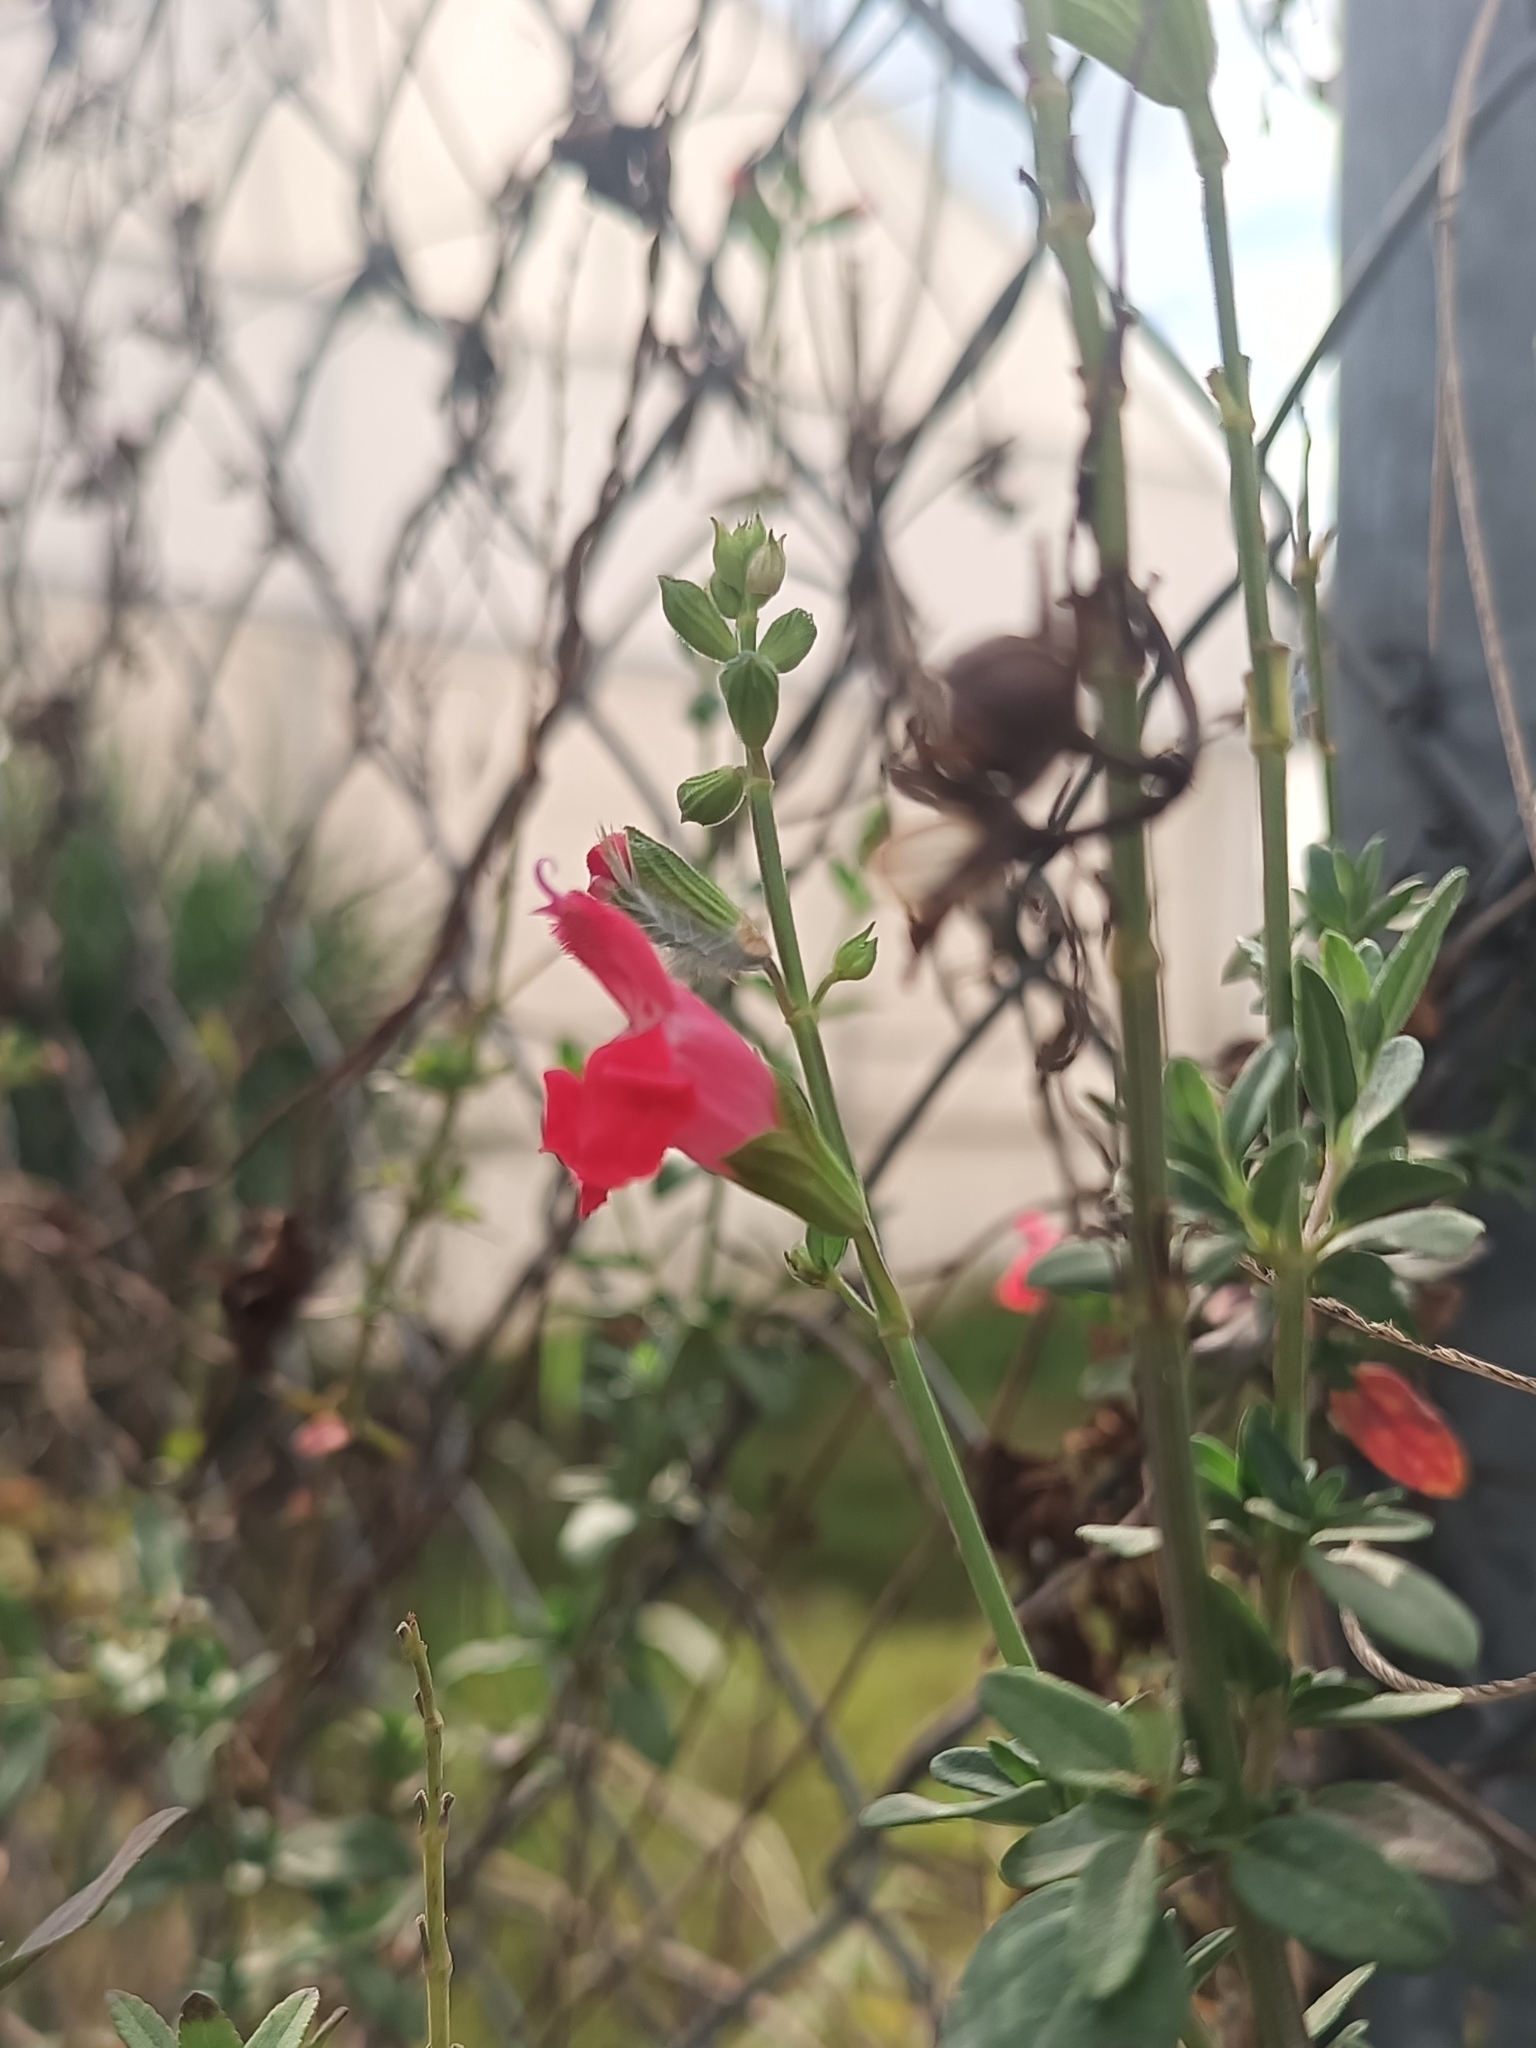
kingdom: Plantae
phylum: Tracheophyta
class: Magnoliopsida
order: Lamiales
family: Lamiaceae
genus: Salvia
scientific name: Salvia microphylla
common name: Baby sage
